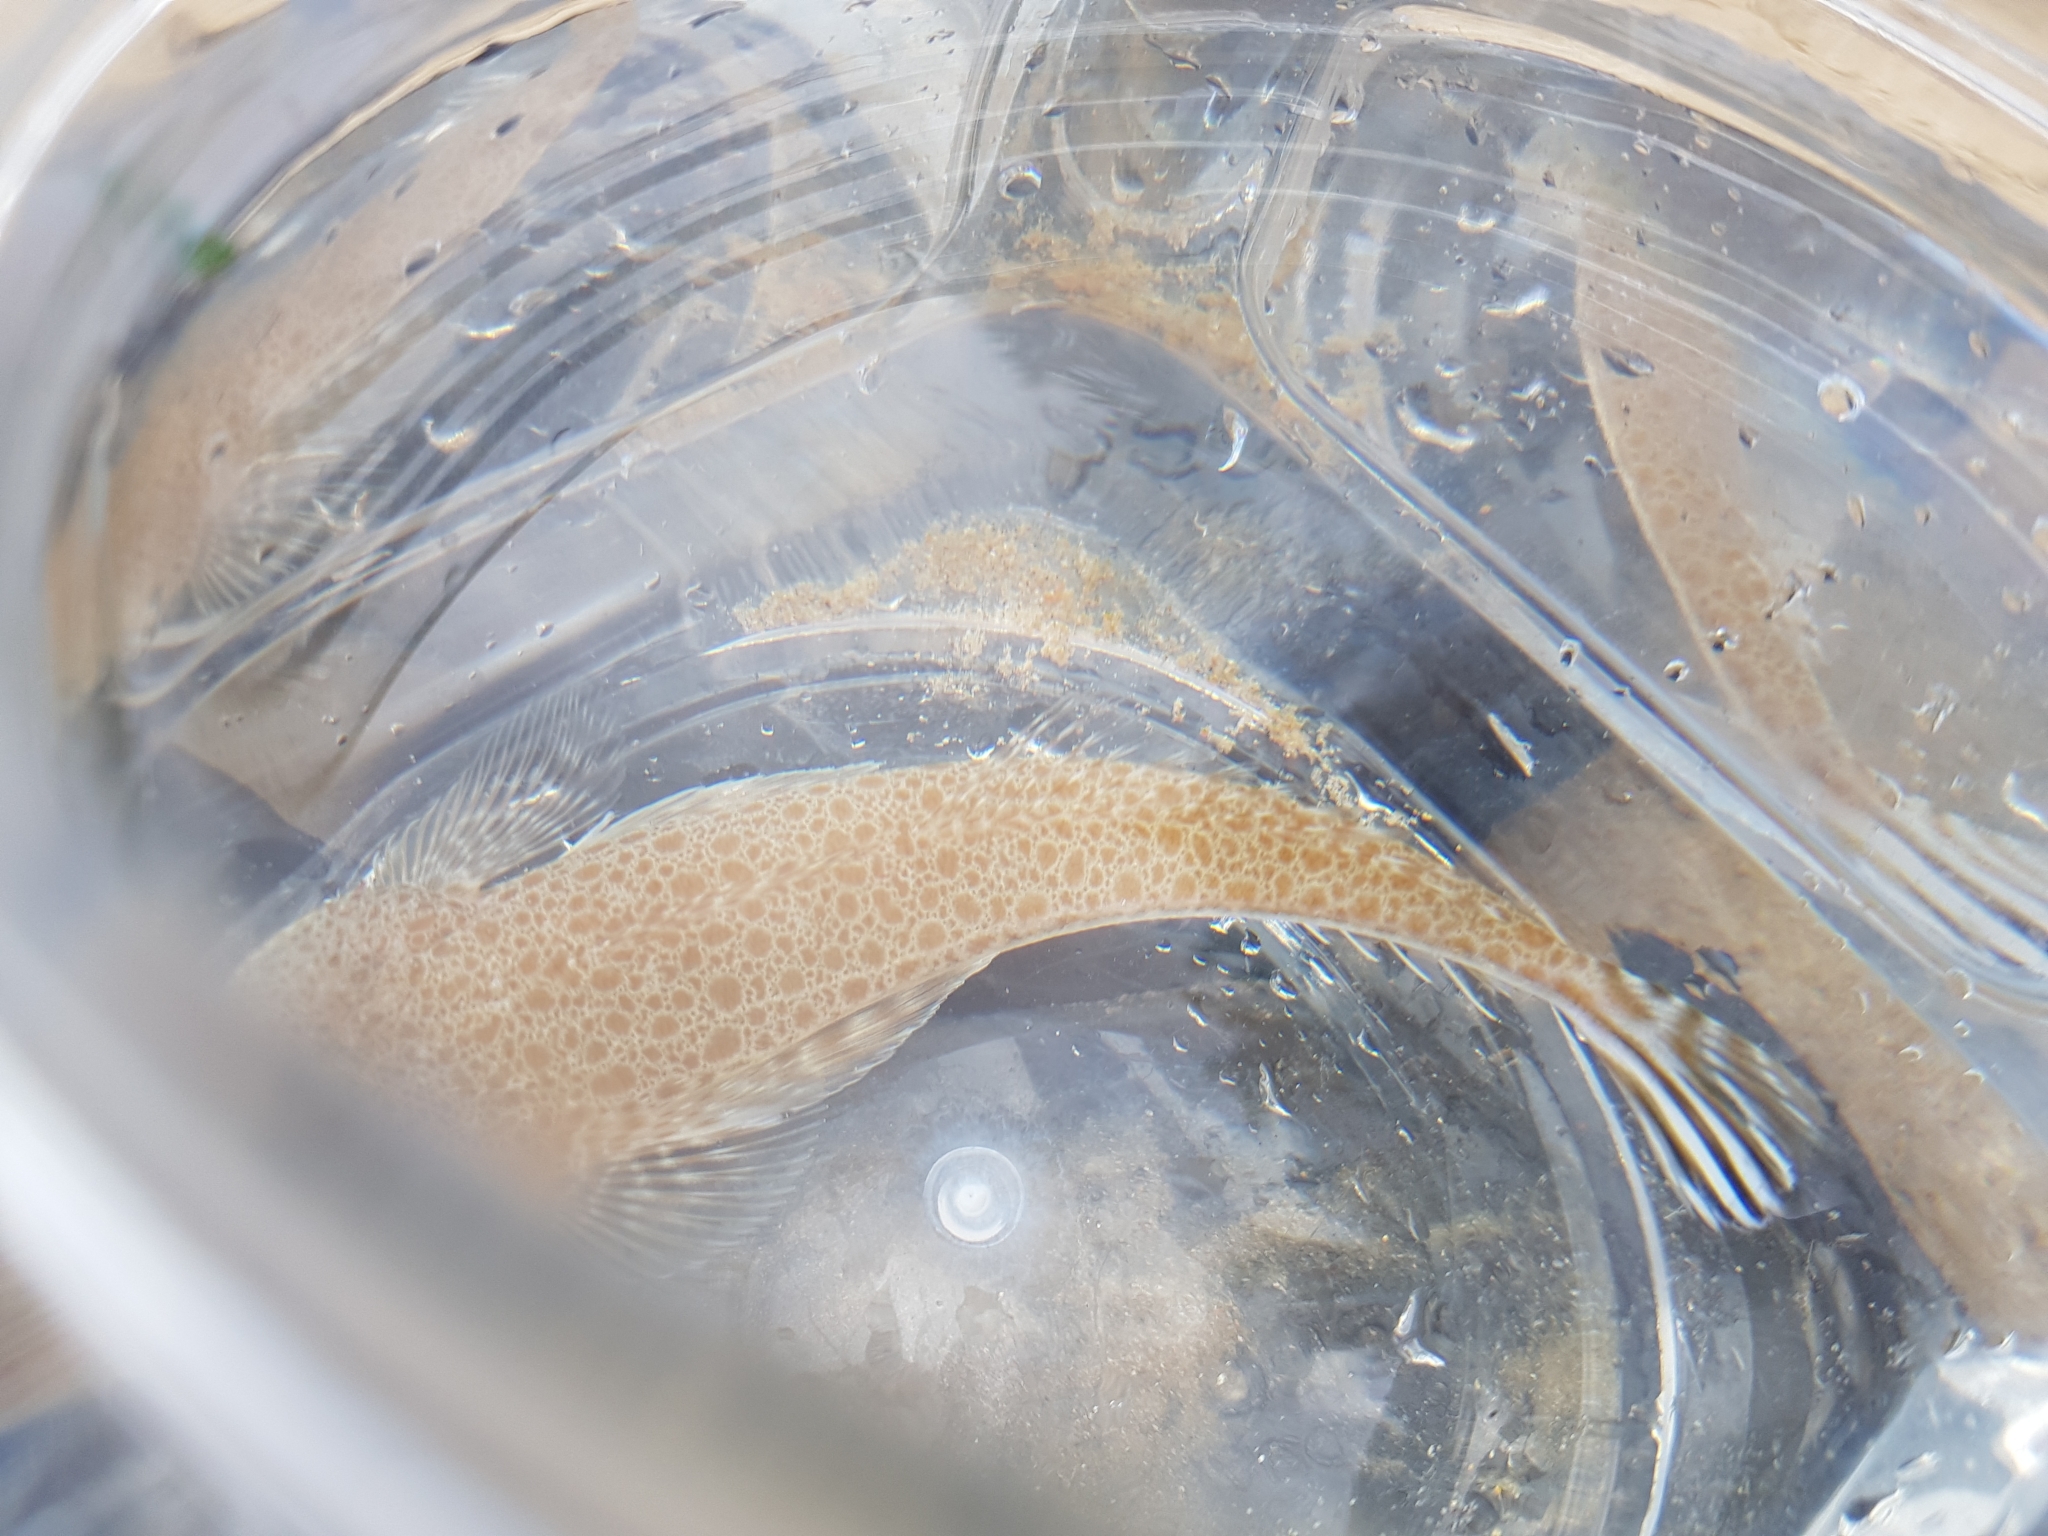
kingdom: Animalia
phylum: Chordata
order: Scorpaeniformes
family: Platycephalidae
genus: Platycephalus
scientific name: Platycephalus endrachtensis
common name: Northern sand flathead
